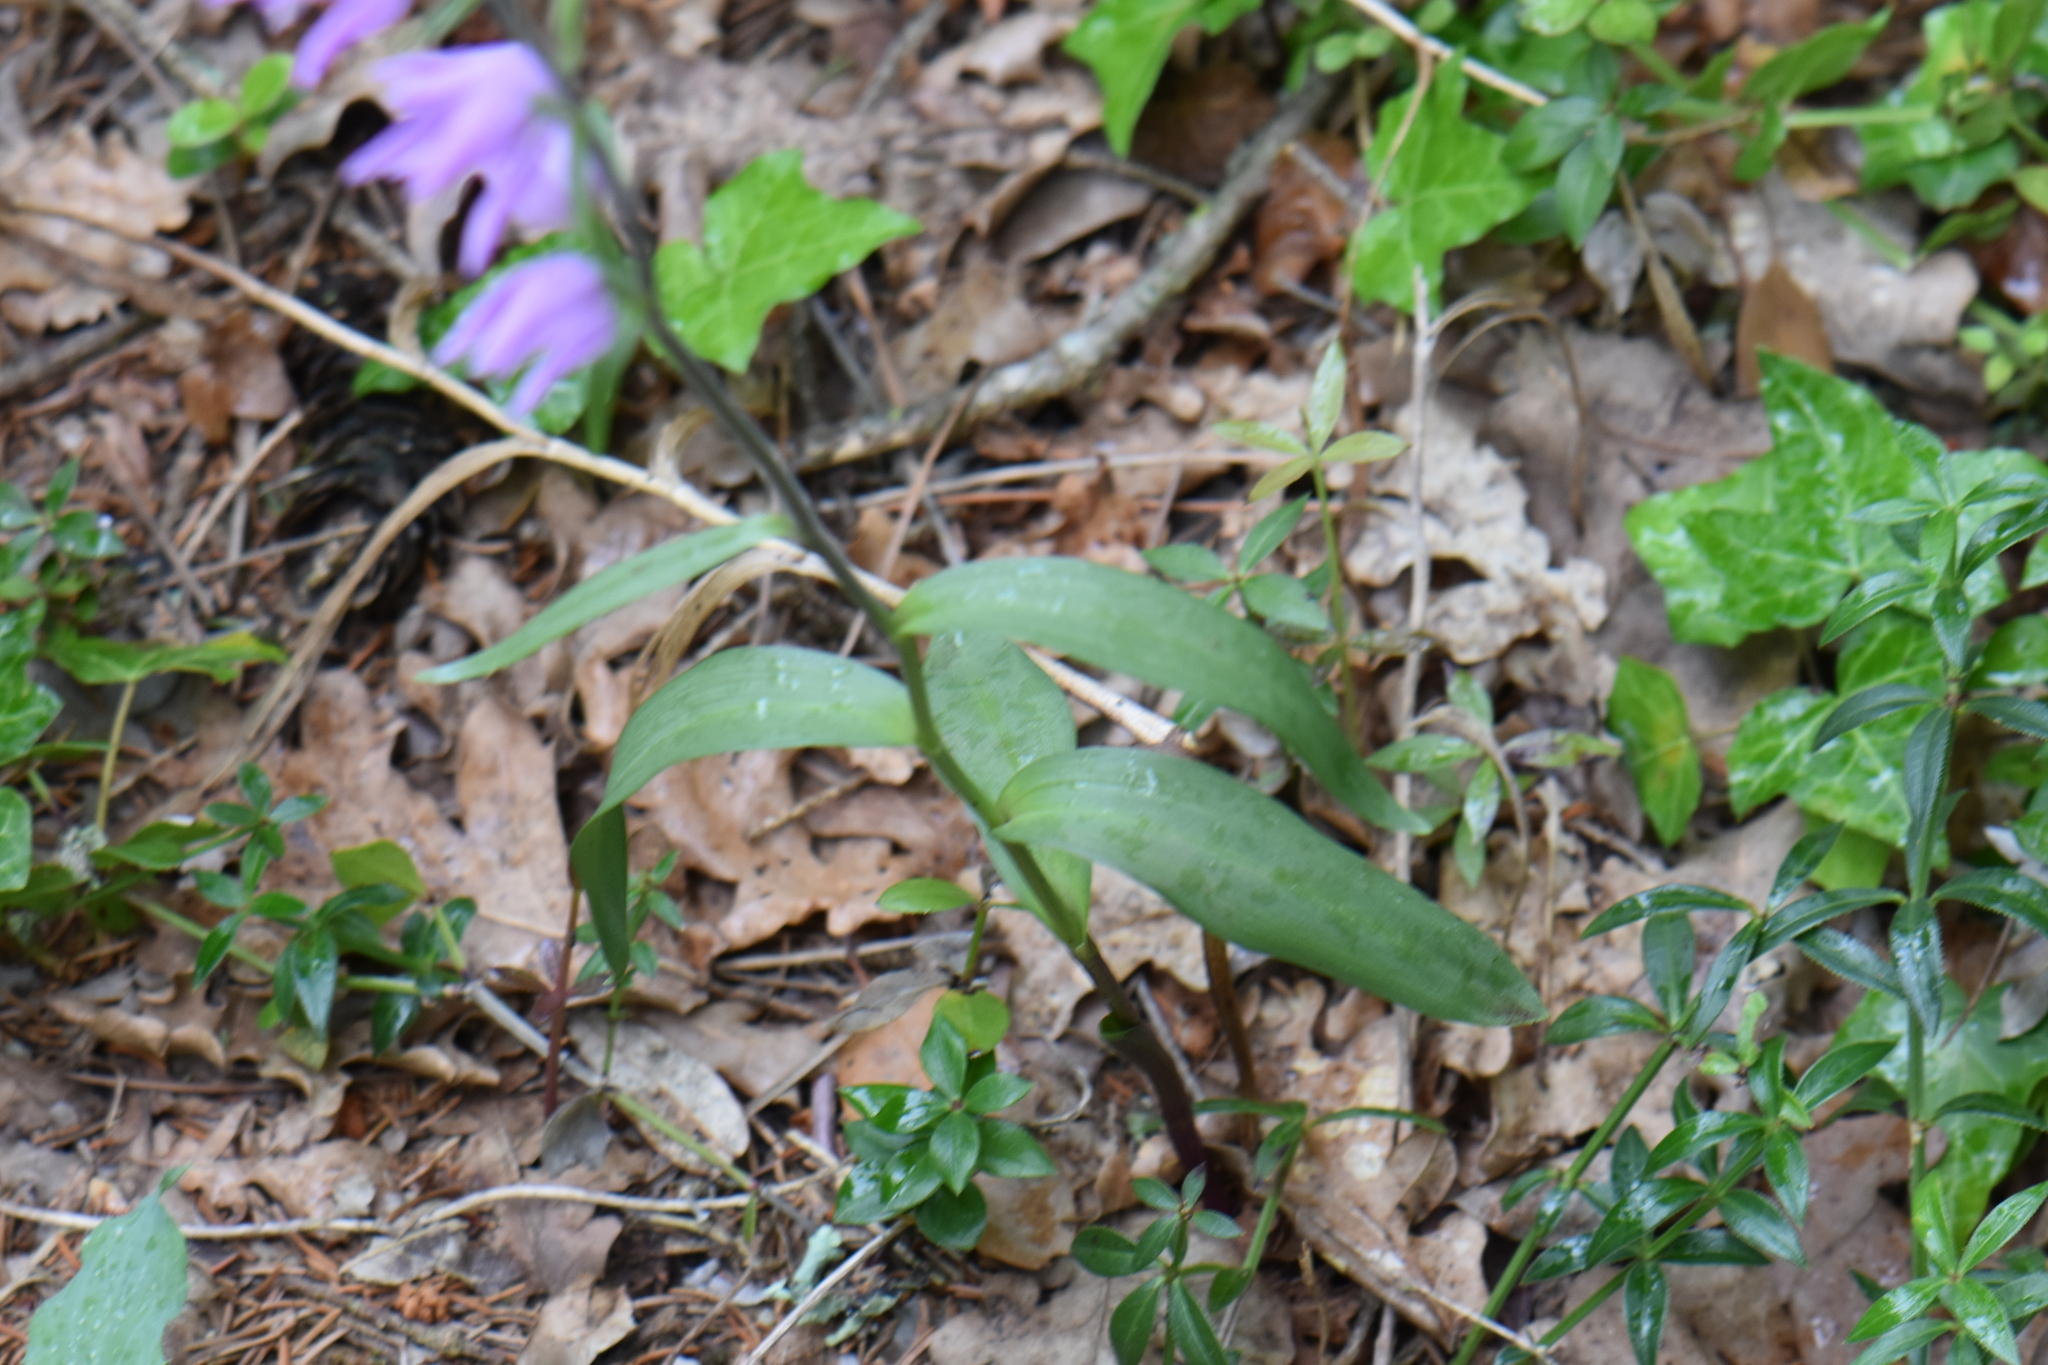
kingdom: Plantae
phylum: Tracheophyta
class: Liliopsida
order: Asparagales
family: Orchidaceae
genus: Cephalanthera
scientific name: Cephalanthera rubra
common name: Red helleborine
